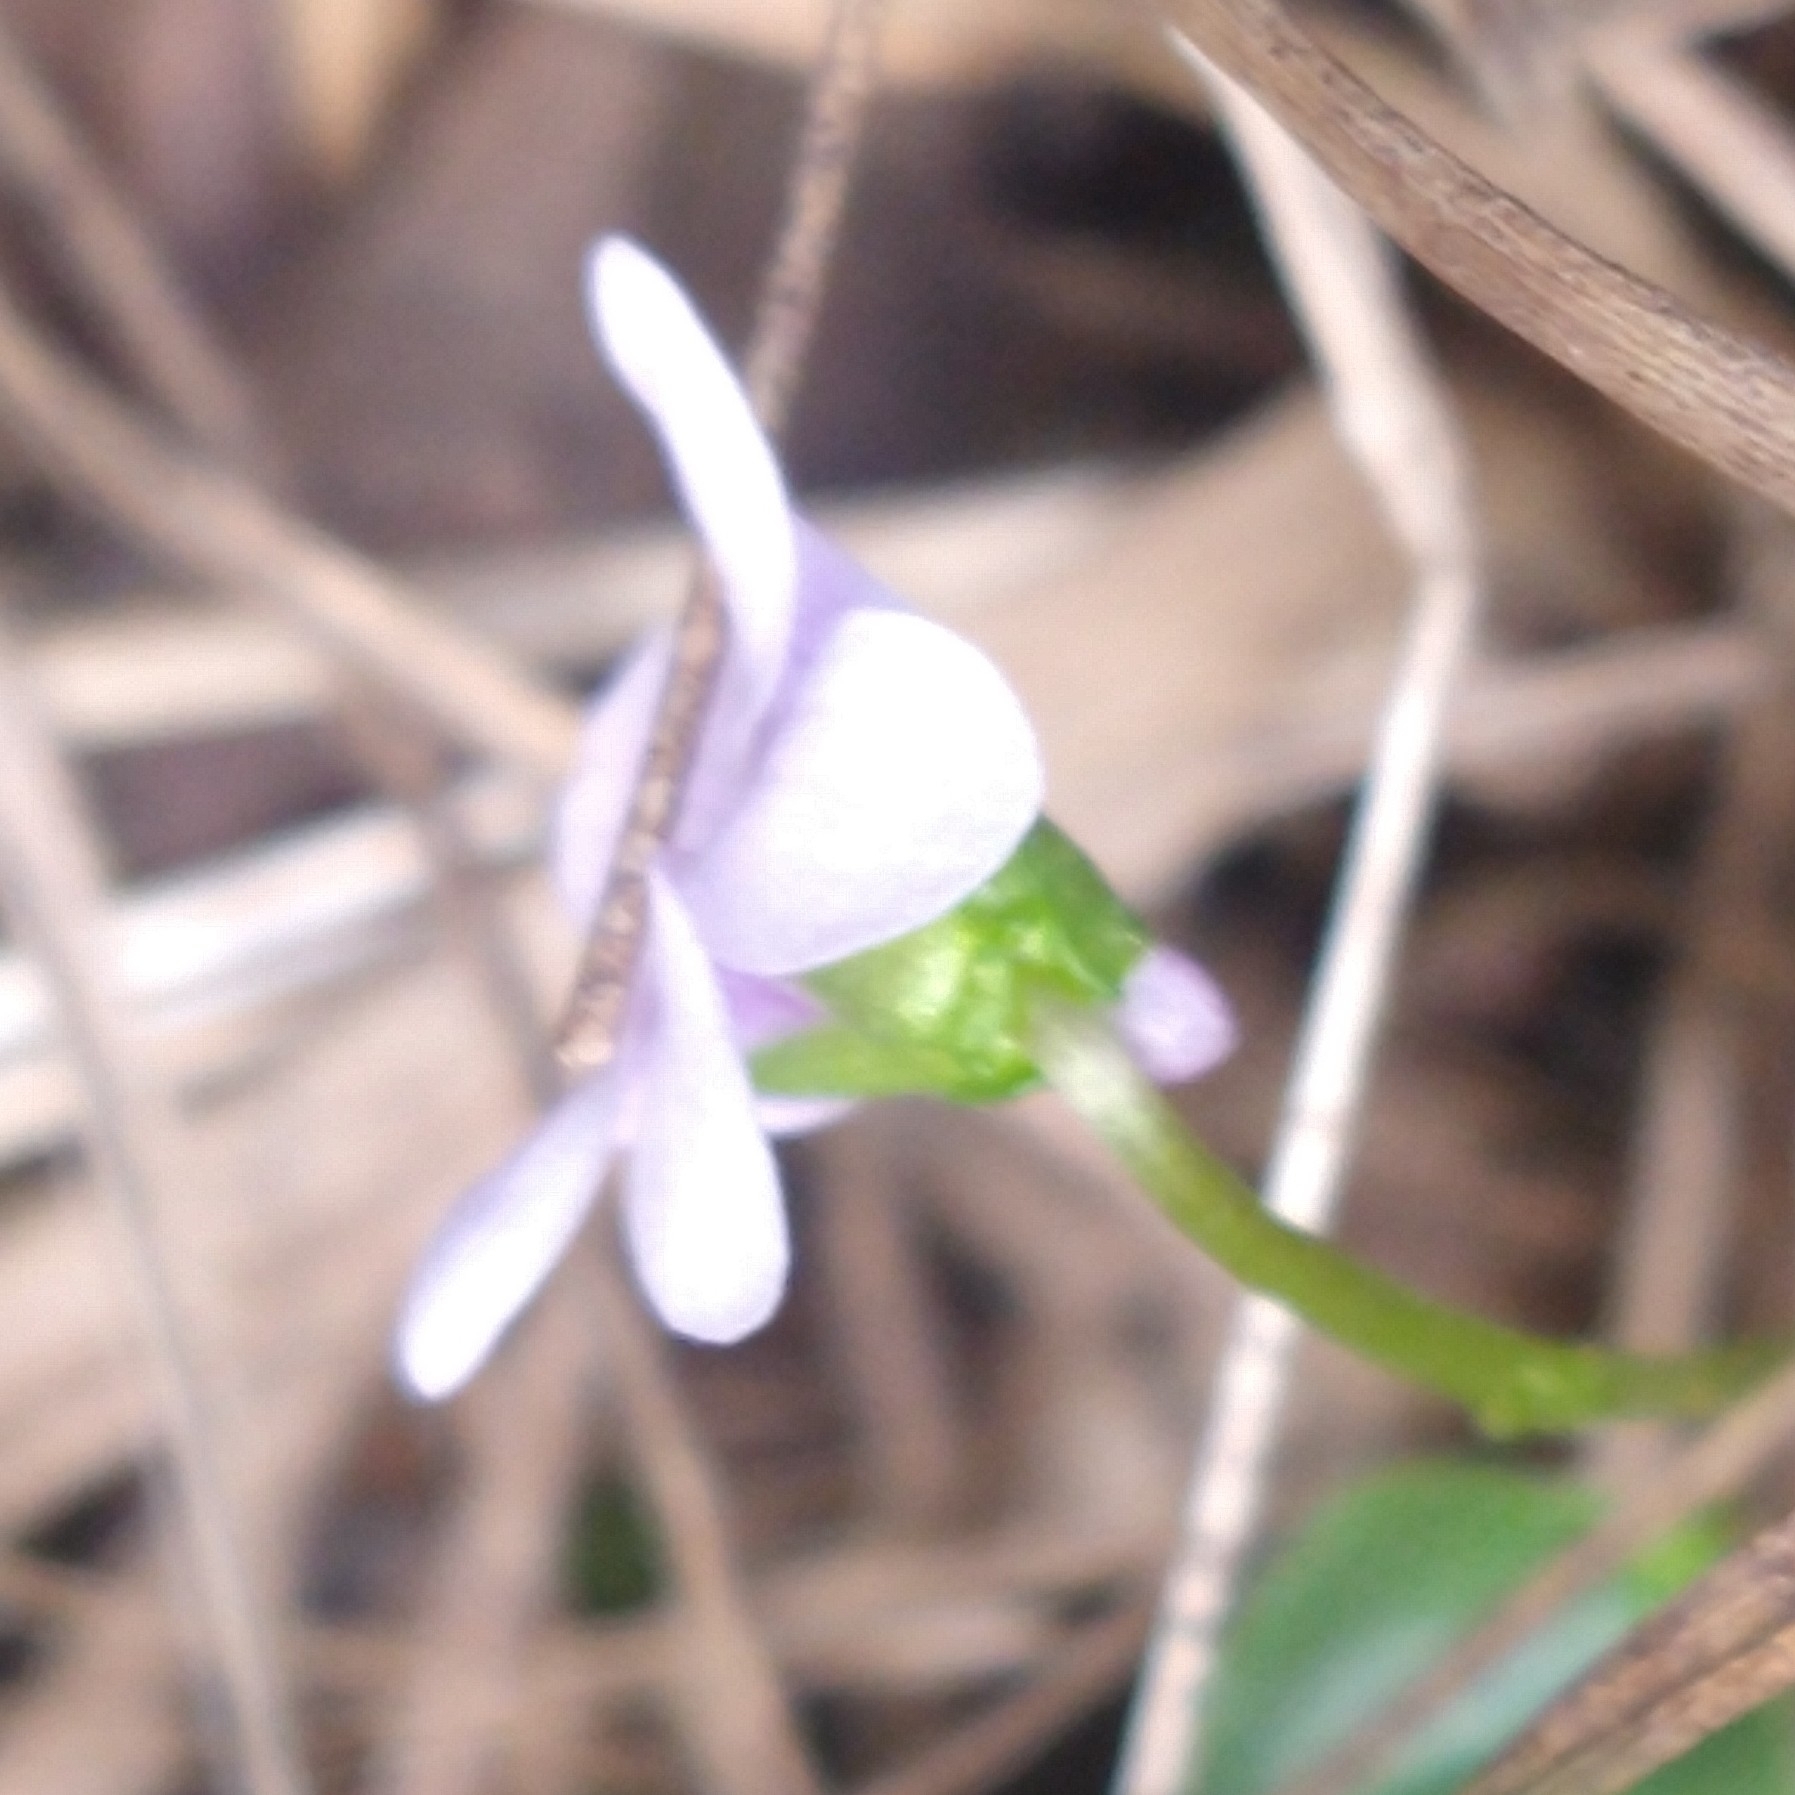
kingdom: Plantae
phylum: Tracheophyta
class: Magnoliopsida
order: Malpighiales
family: Violaceae
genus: Viola
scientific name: Viola palustris
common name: Marsh violet
